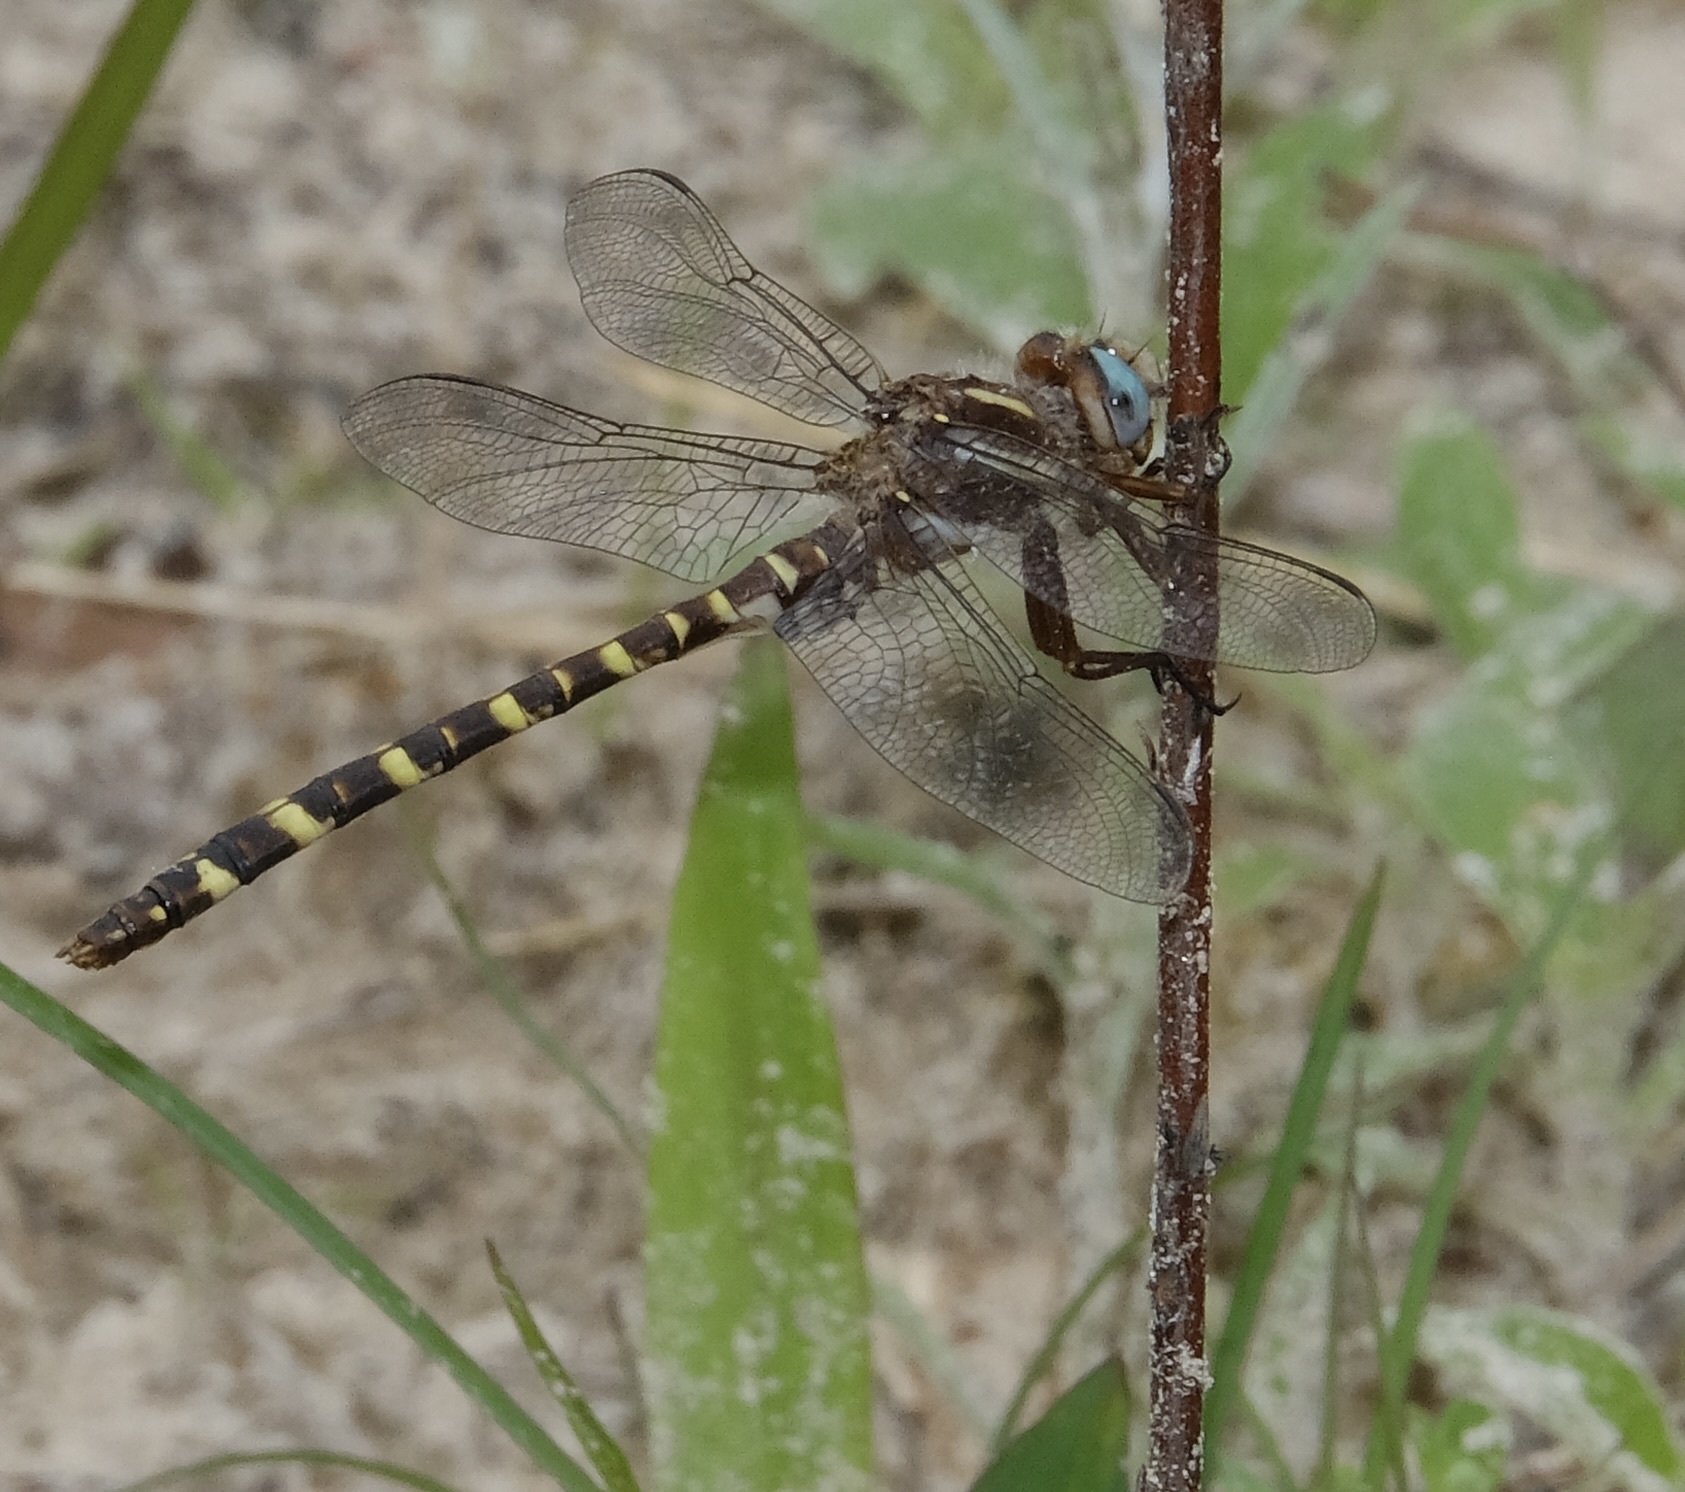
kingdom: Animalia
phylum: Arthropoda
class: Insecta
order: Odonata
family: Cordulegastridae
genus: Cordulegaster
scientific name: Cordulegaster sarracenia
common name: Sarracenia spiketail
